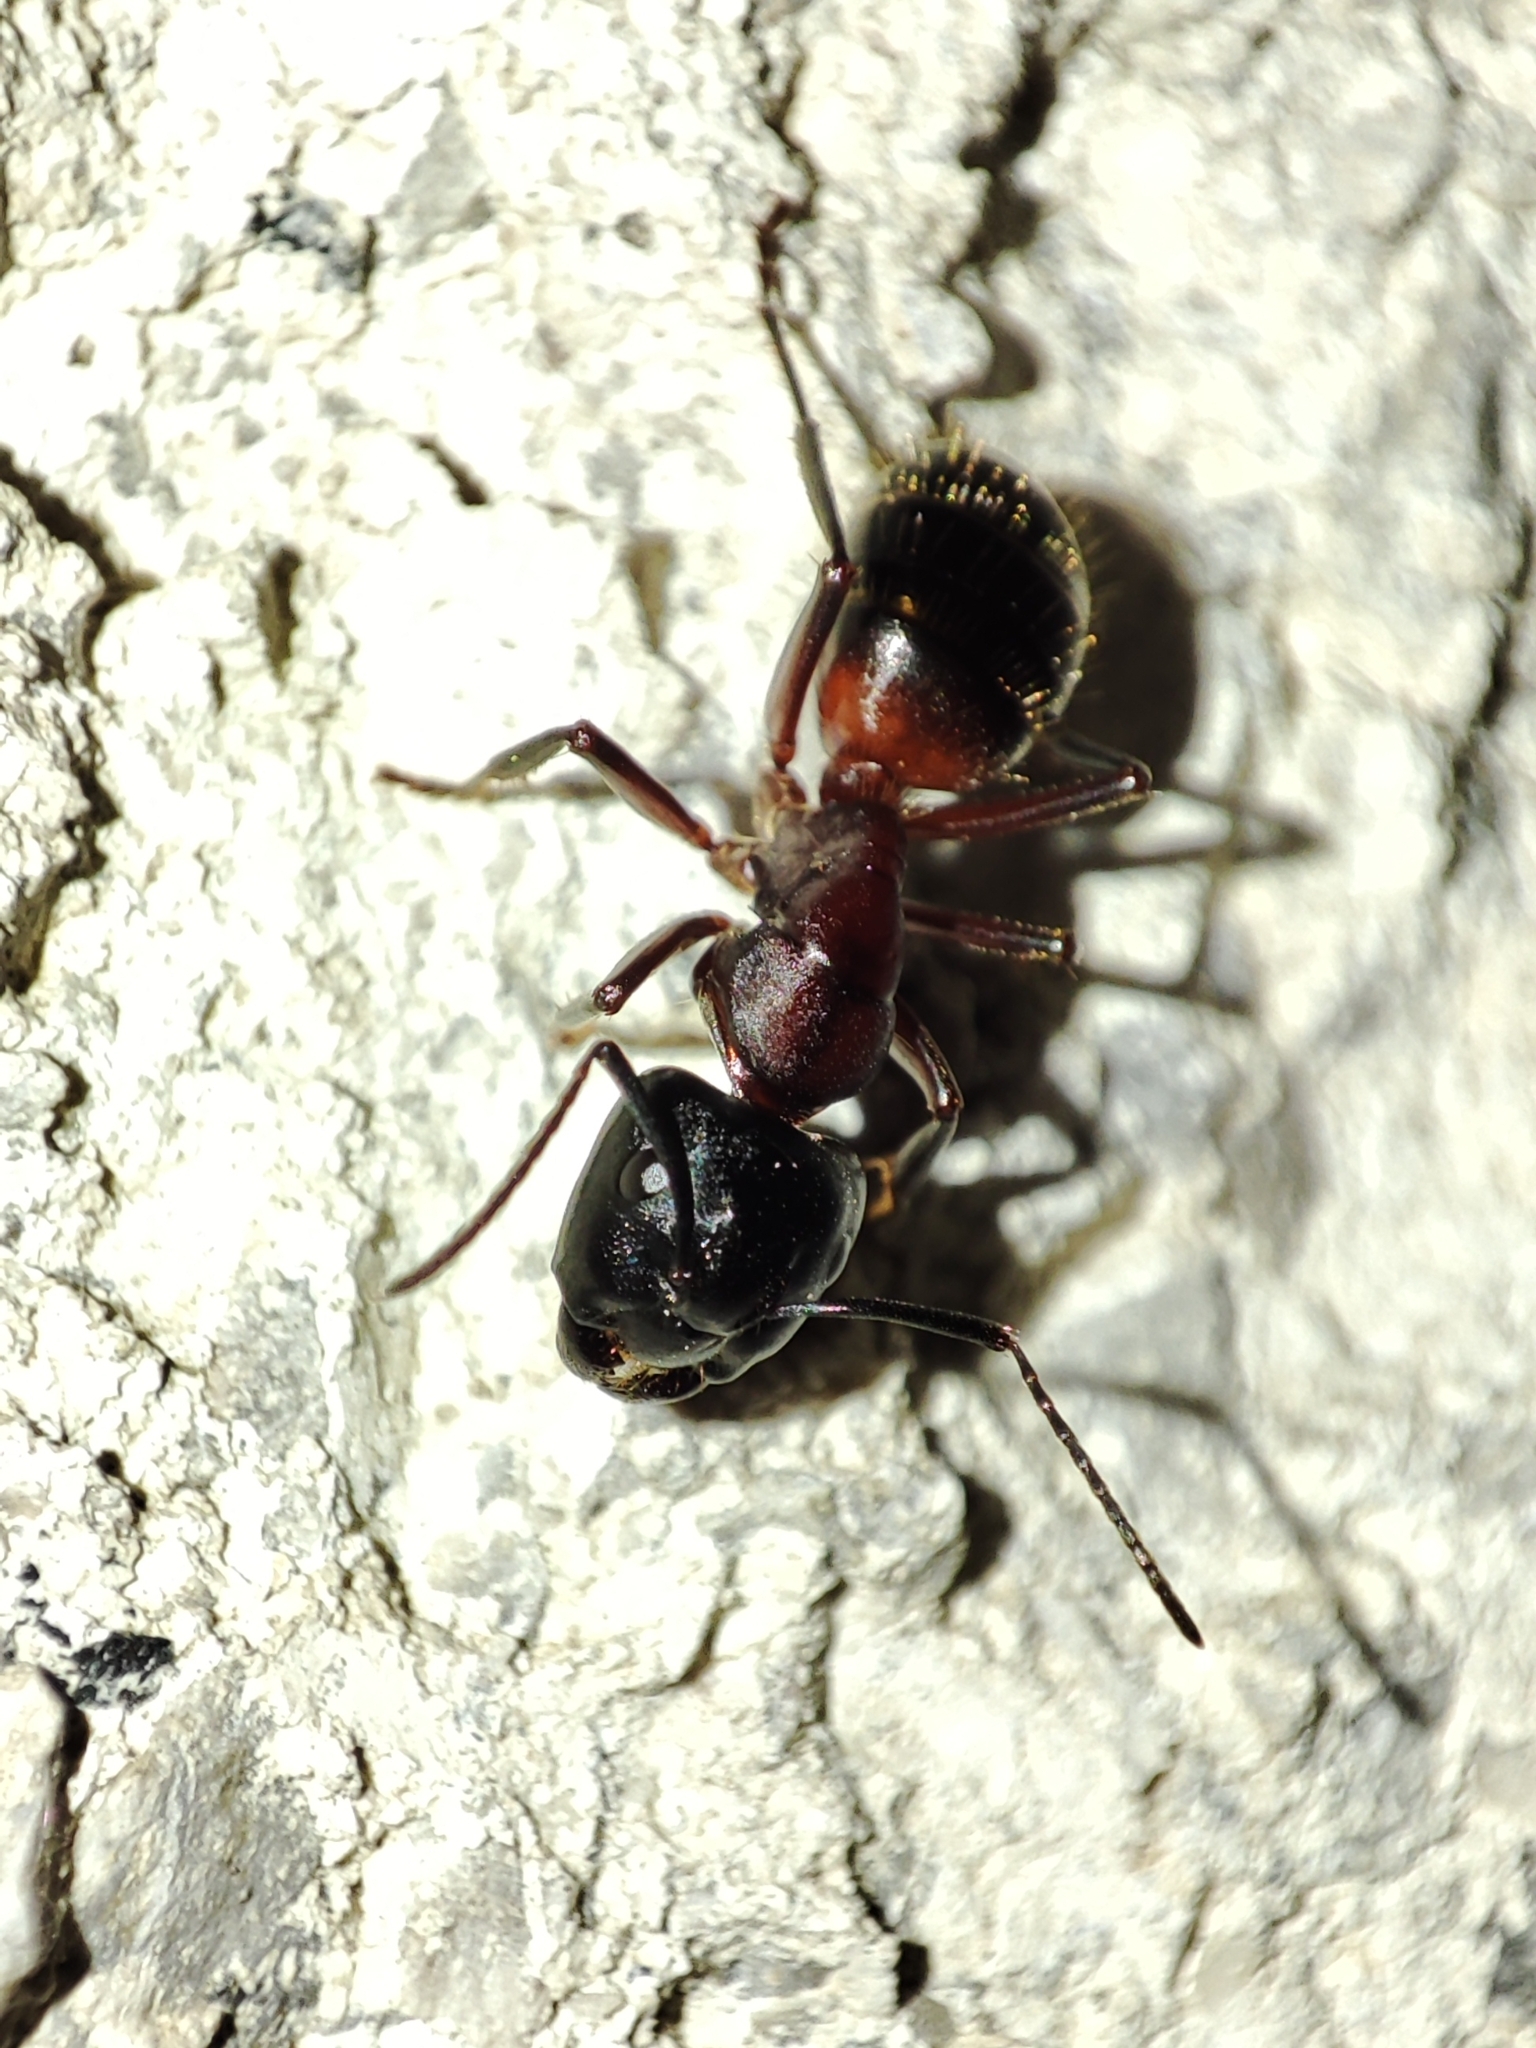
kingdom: Animalia
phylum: Arthropoda
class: Insecta
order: Hymenoptera
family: Formicidae
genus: Camponotus
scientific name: Camponotus ligniperdus
